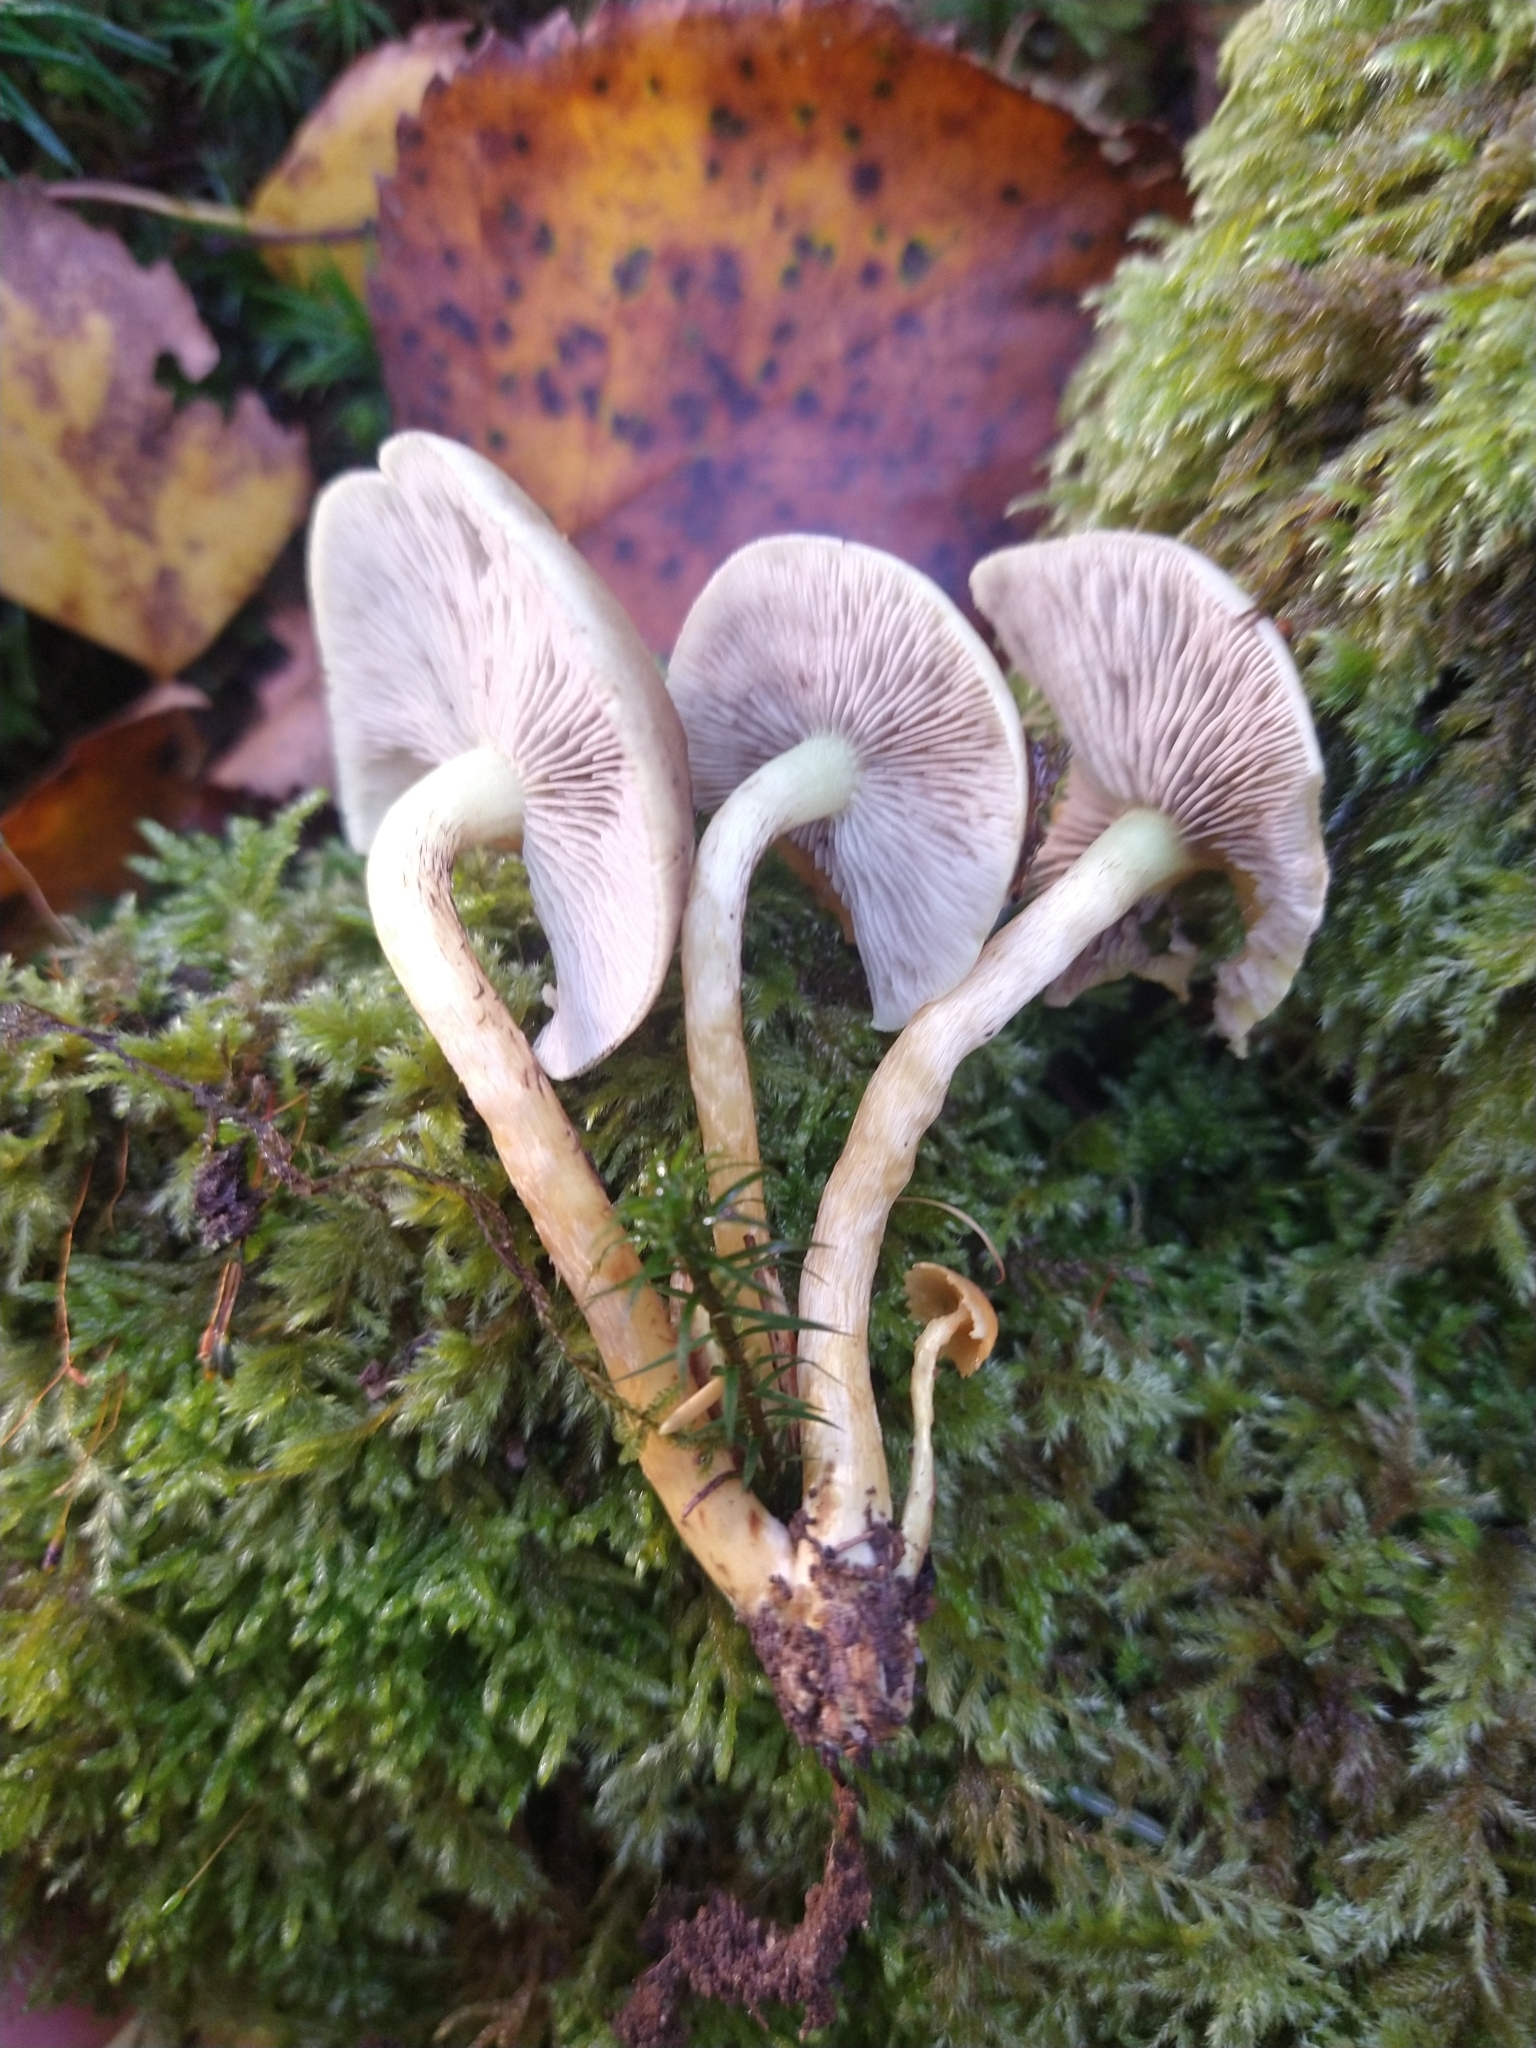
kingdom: Fungi
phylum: Basidiomycota
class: Agaricomycetes
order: Agaricales
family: Strophariaceae
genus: Hypholoma
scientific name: Hypholoma fasciculare
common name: Sulphur tuft
